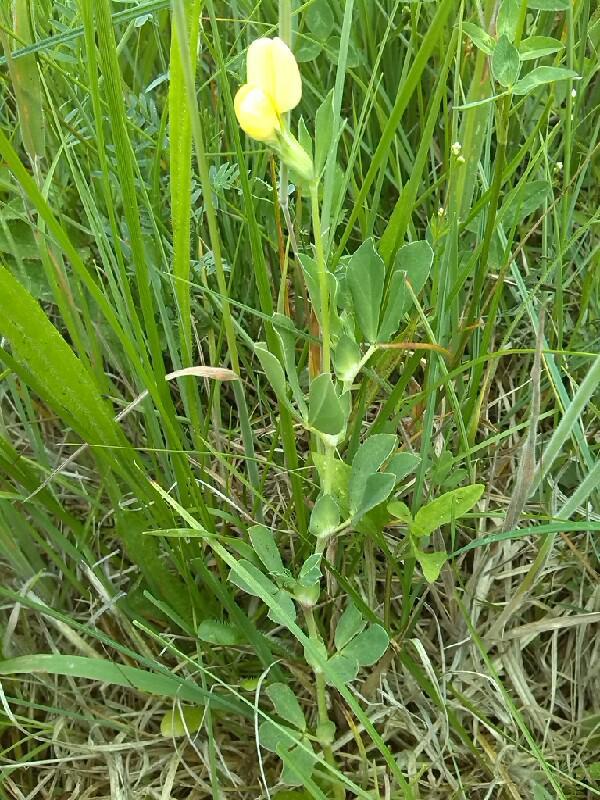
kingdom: Plantae
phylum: Tracheophyta
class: Magnoliopsida
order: Fabales
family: Fabaceae
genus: Lotus
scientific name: Lotus maritimus
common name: Dragon's-teeth
